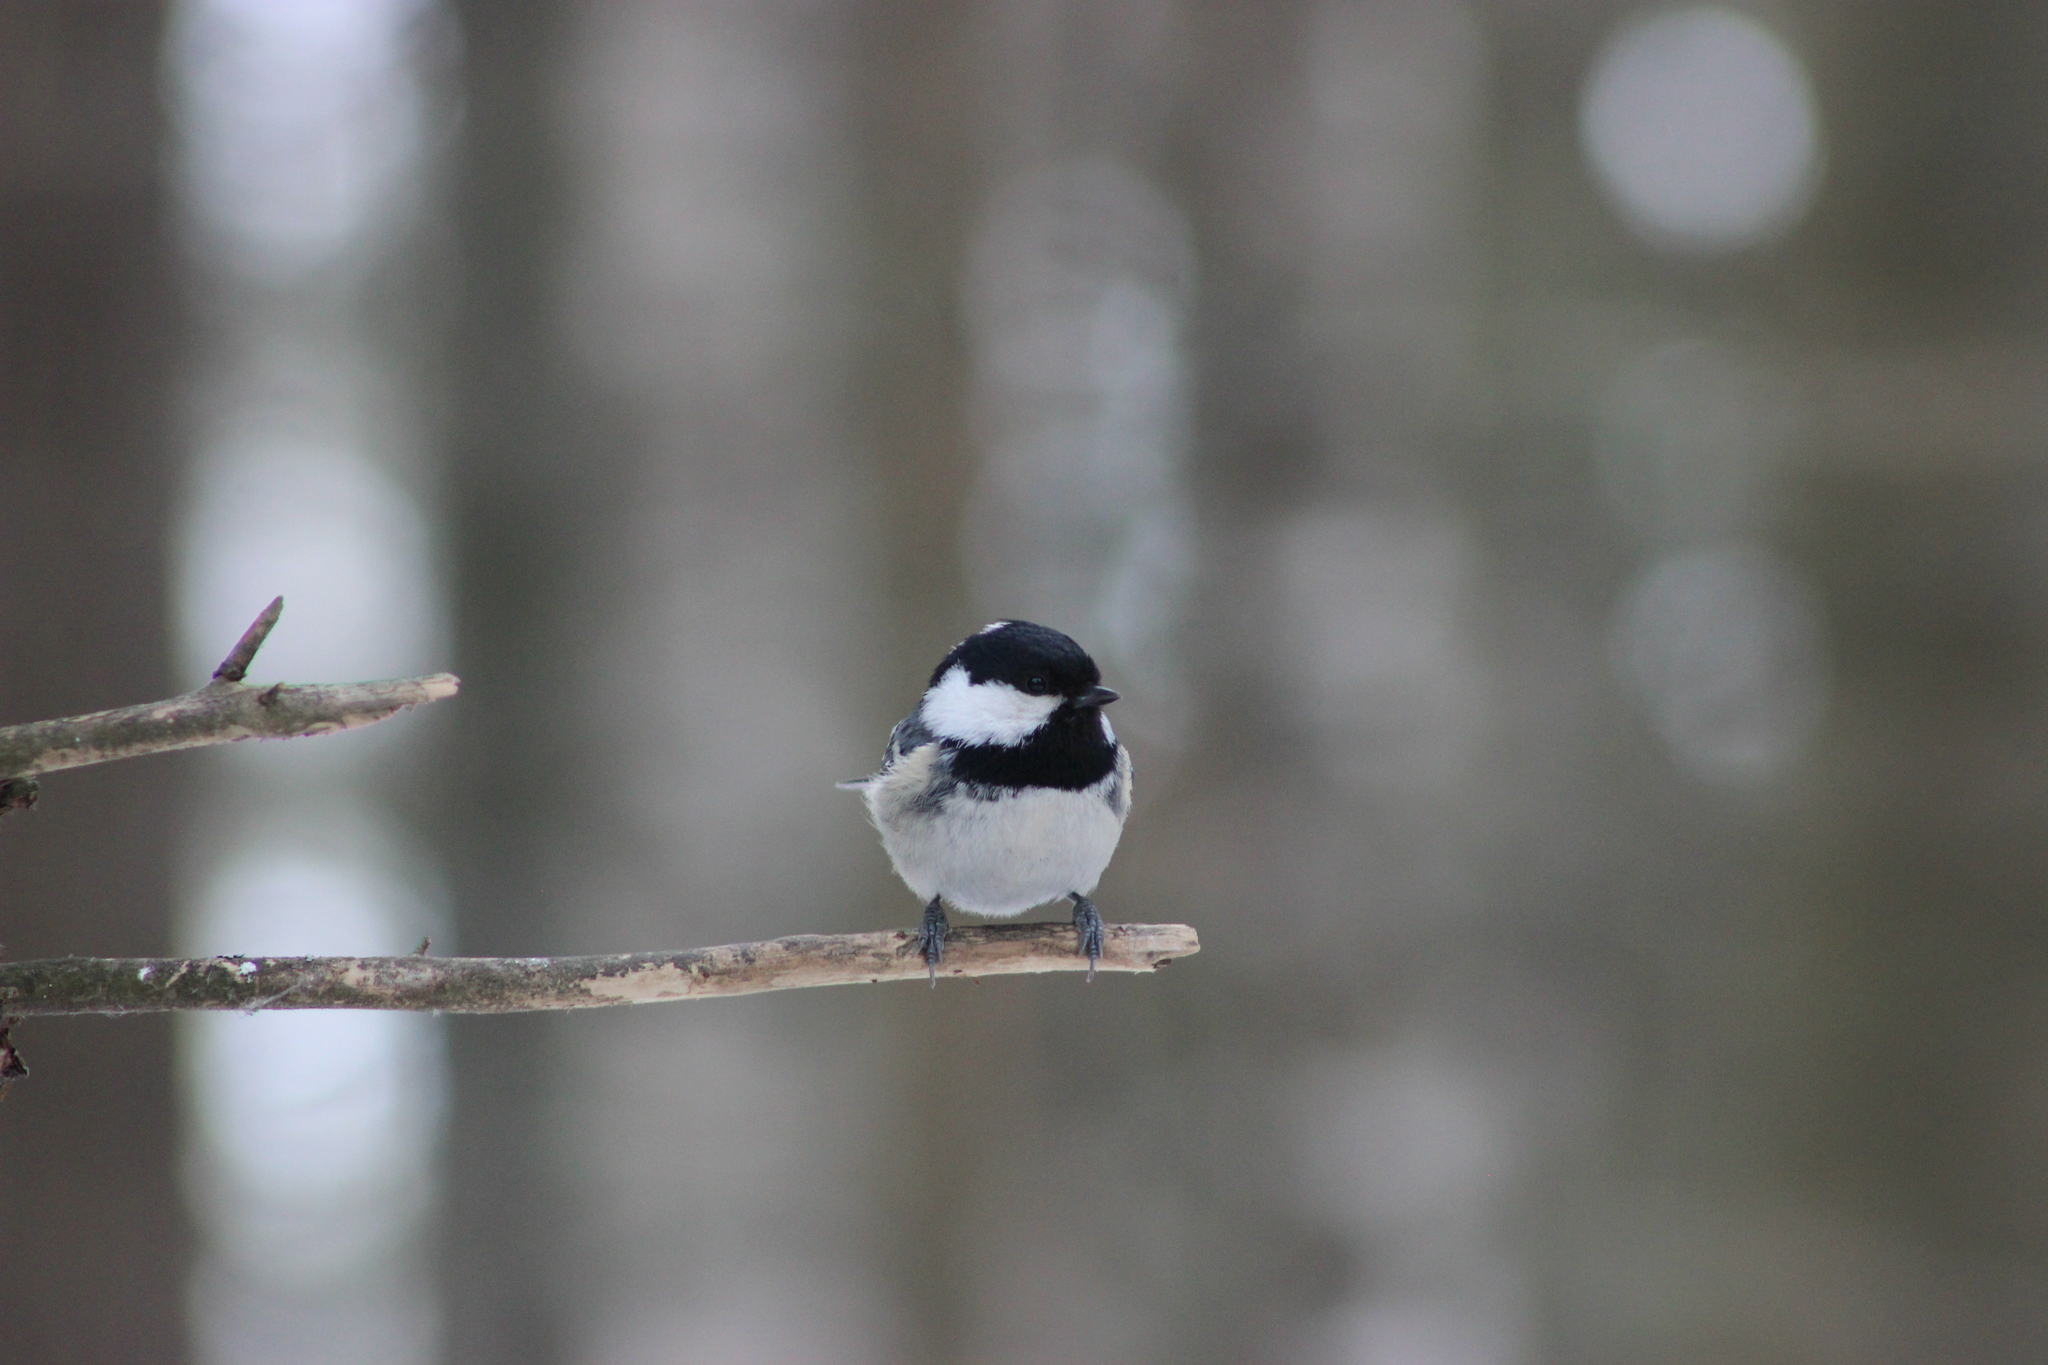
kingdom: Animalia
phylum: Chordata
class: Aves
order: Passeriformes
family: Paridae
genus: Periparus
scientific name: Periparus ater
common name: Coal tit
